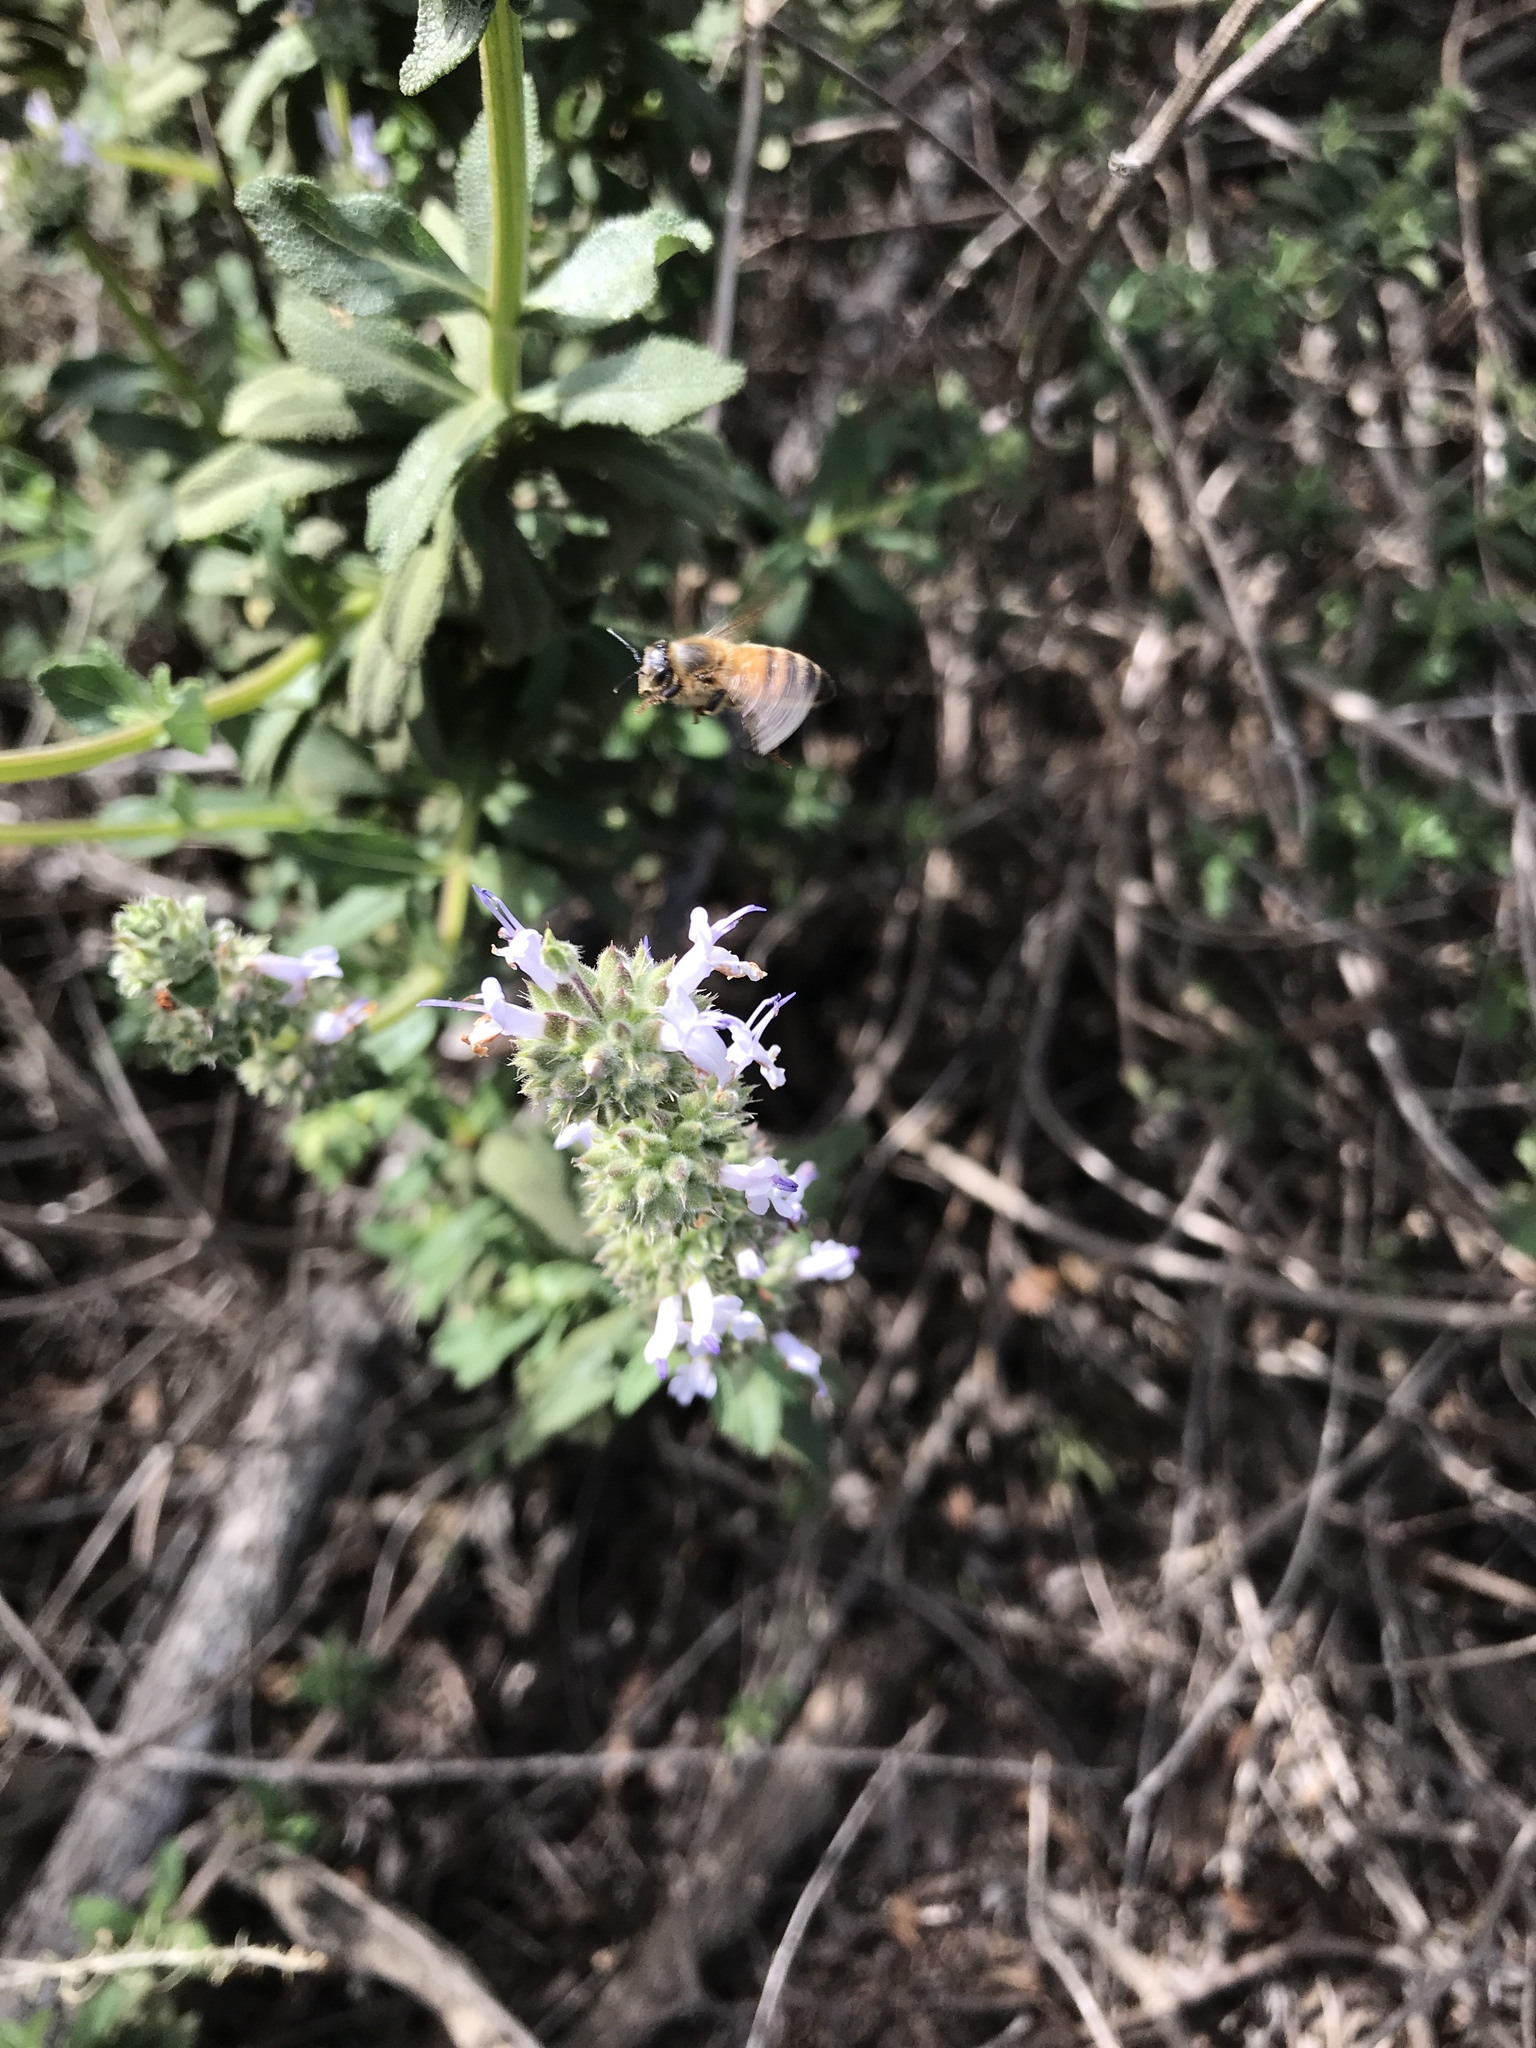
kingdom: Animalia
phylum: Arthropoda
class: Insecta
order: Hymenoptera
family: Apidae
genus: Apis
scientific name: Apis mellifera
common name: Honey bee
